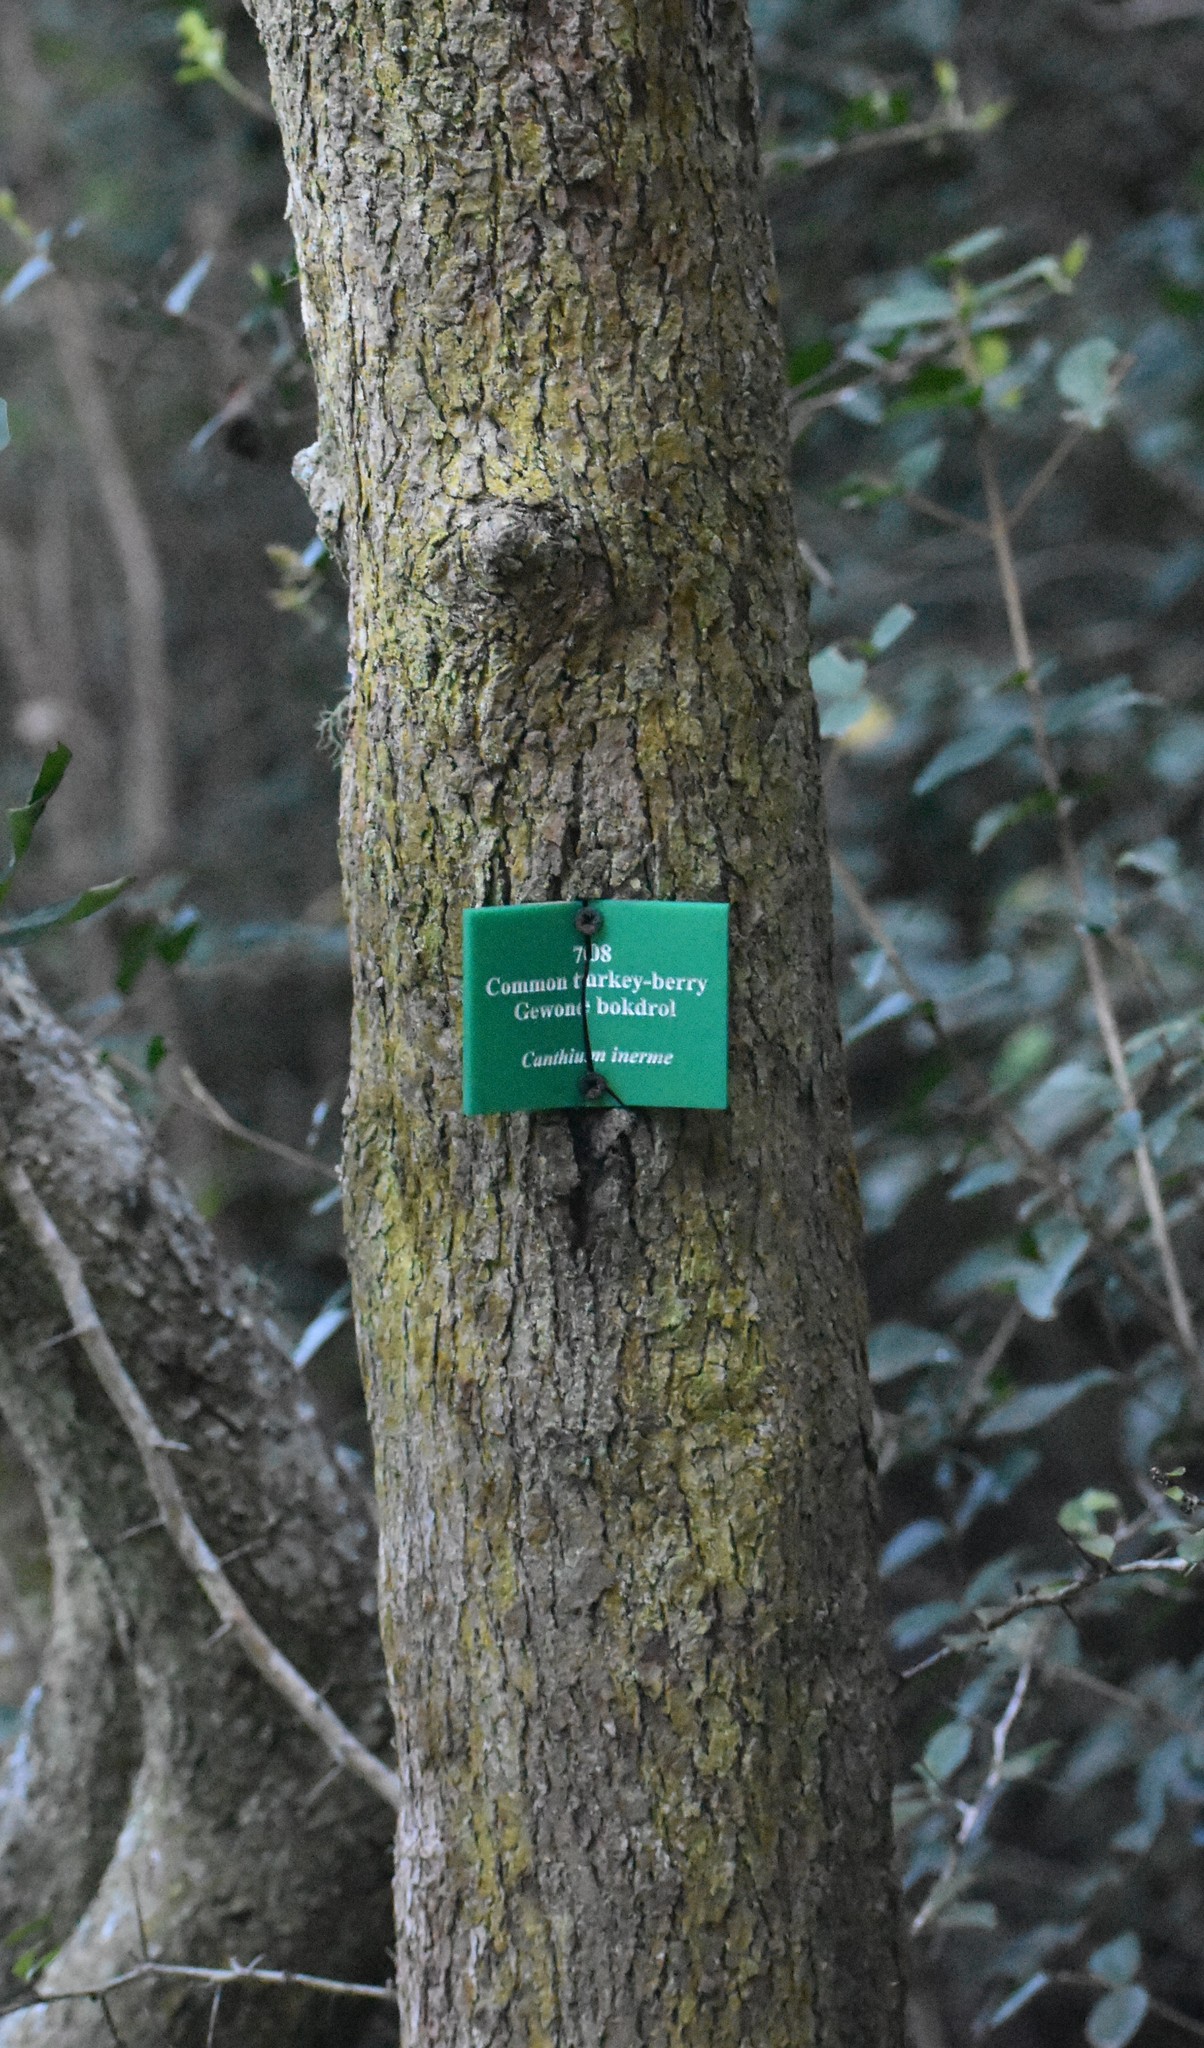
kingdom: Plantae
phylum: Tracheophyta
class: Magnoliopsida
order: Gentianales
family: Rubiaceae
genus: Canthium
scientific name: Canthium inerme
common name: Unarmed turkey-berry
